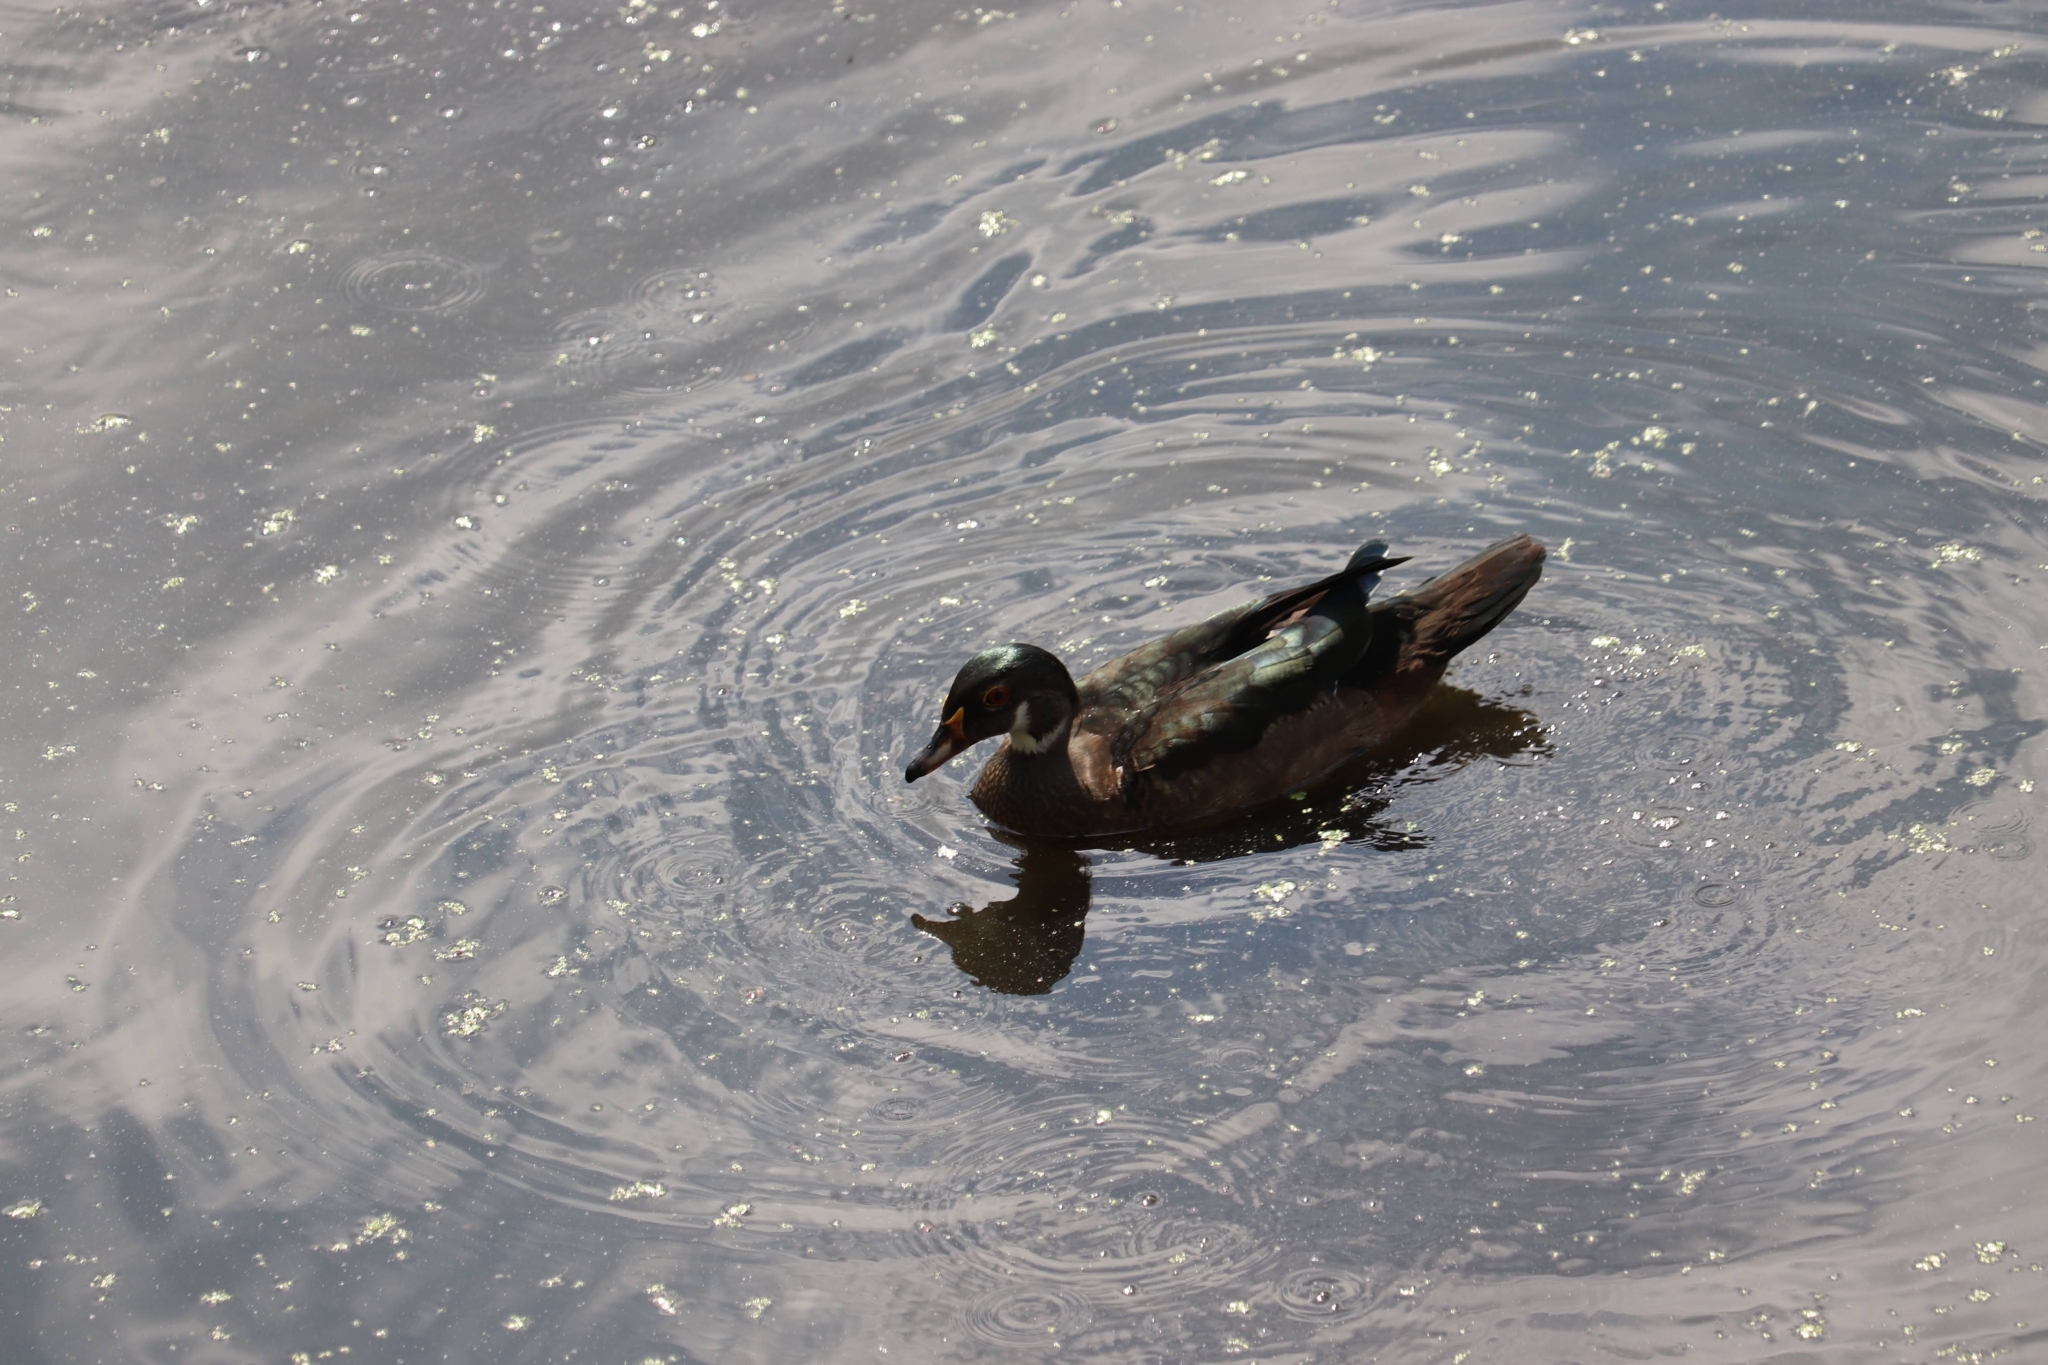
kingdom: Animalia
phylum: Chordata
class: Aves
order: Anseriformes
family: Anatidae
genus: Aix
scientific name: Aix sponsa
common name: Wood duck
